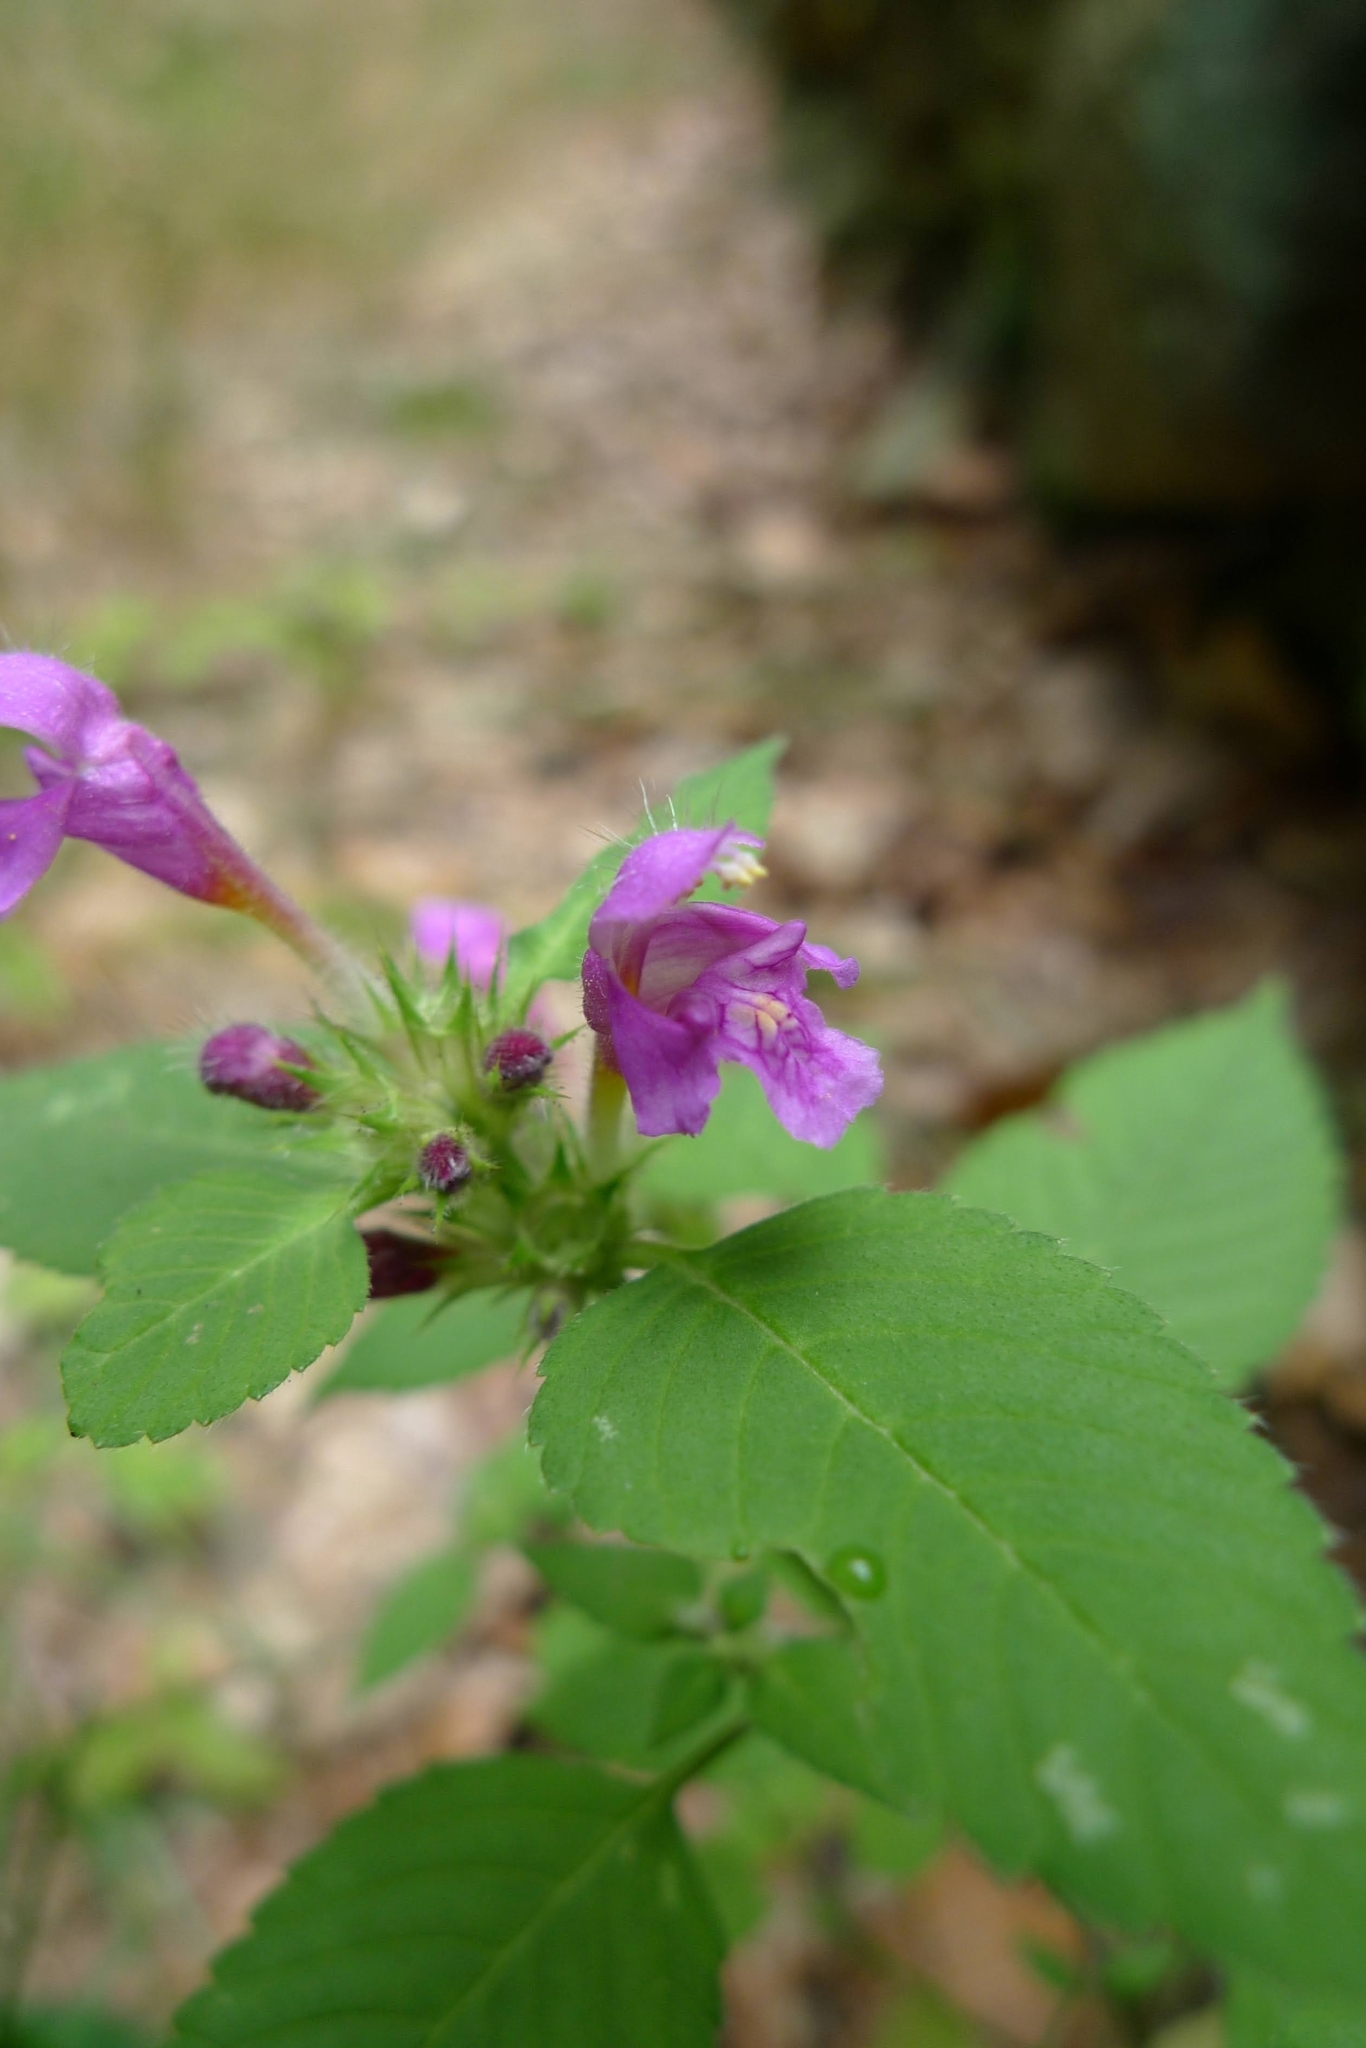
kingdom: Plantae
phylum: Tracheophyta
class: Magnoliopsida
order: Lamiales
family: Lamiaceae
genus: Galeopsis
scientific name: Galeopsis pubescens
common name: Downy hemp-nettle
